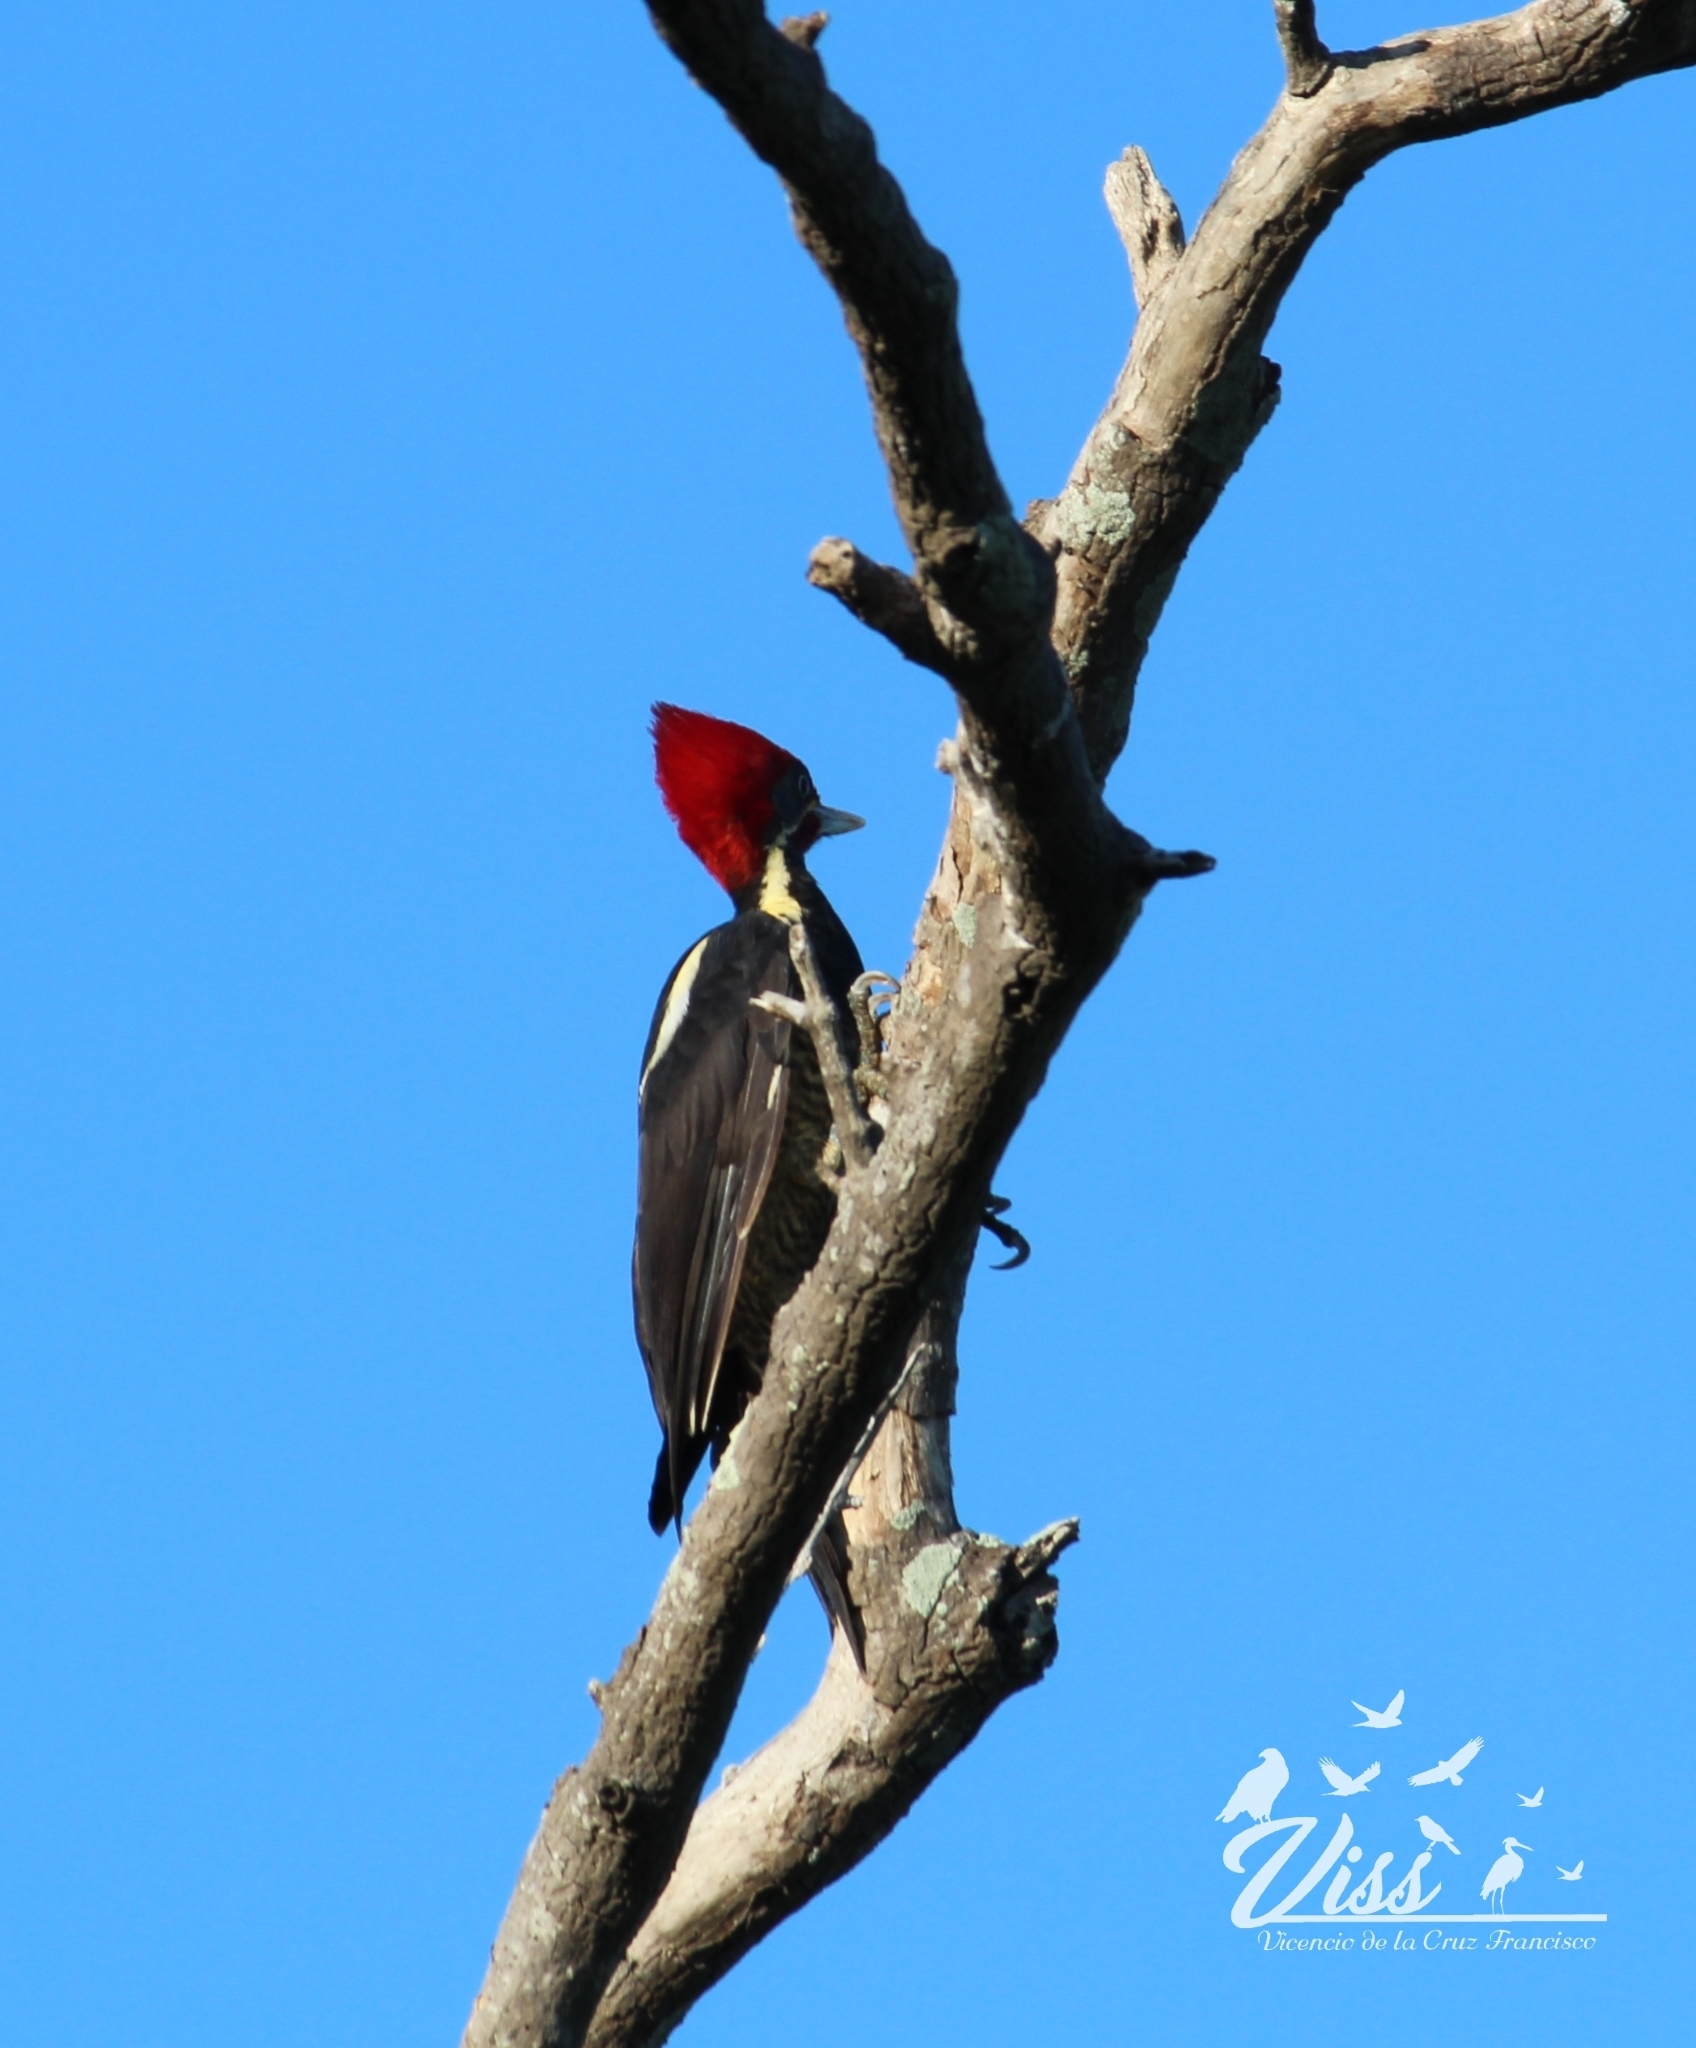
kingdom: Animalia
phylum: Chordata
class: Aves
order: Piciformes
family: Picidae
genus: Dryocopus
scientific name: Dryocopus lineatus
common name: Lineated woodpecker
